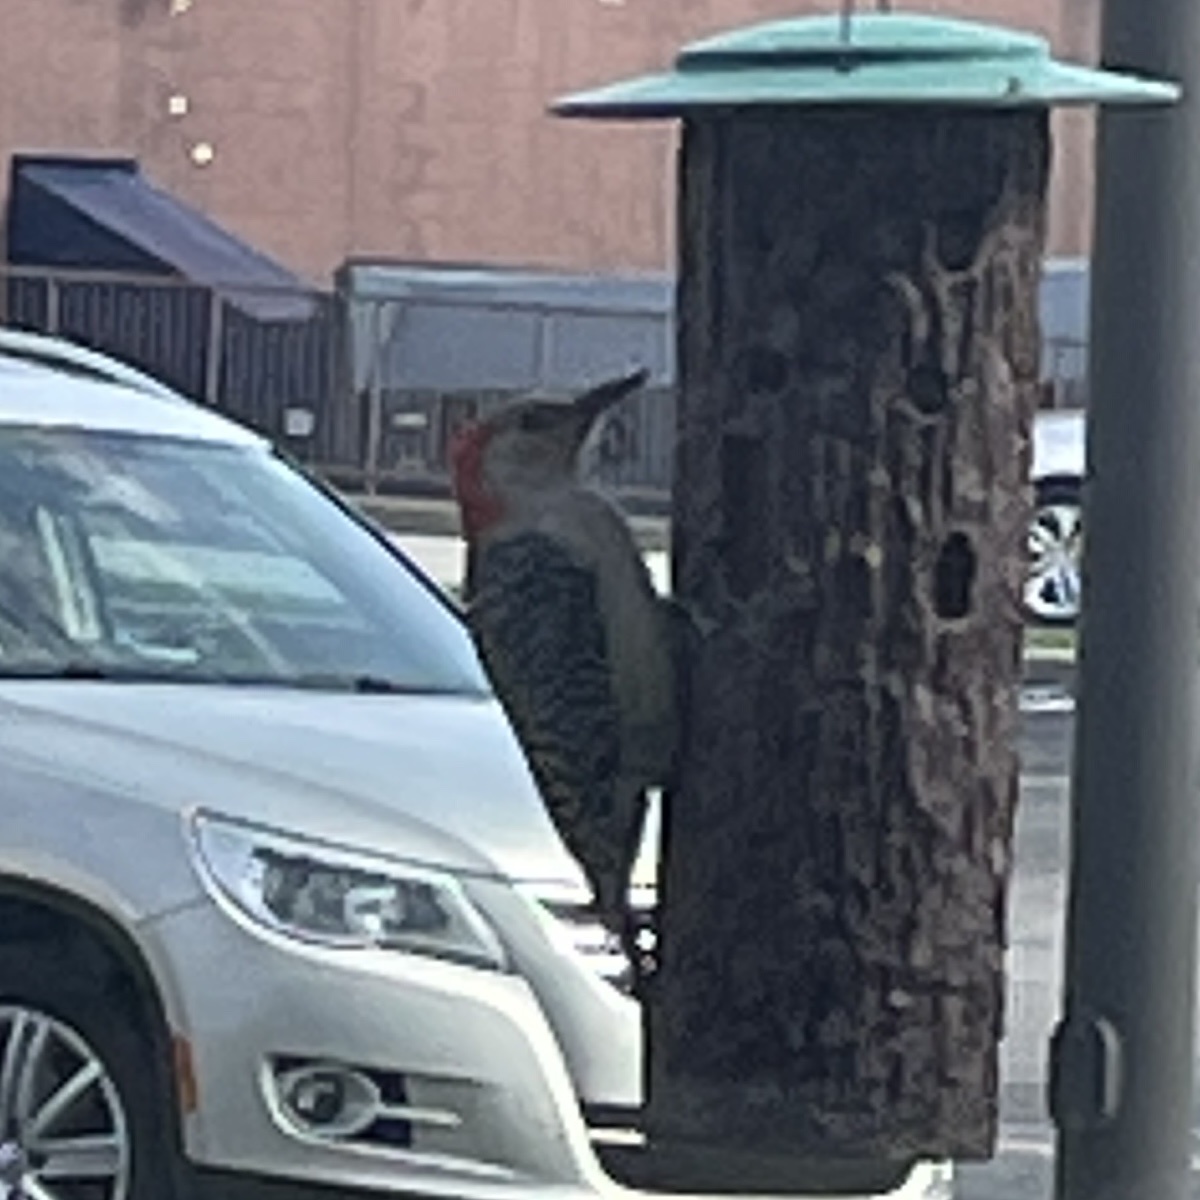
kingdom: Animalia
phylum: Chordata
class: Aves
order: Piciformes
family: Picidae
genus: Melanerpes
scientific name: Melanerpes carolinus
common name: Red-bellied woodpecker
